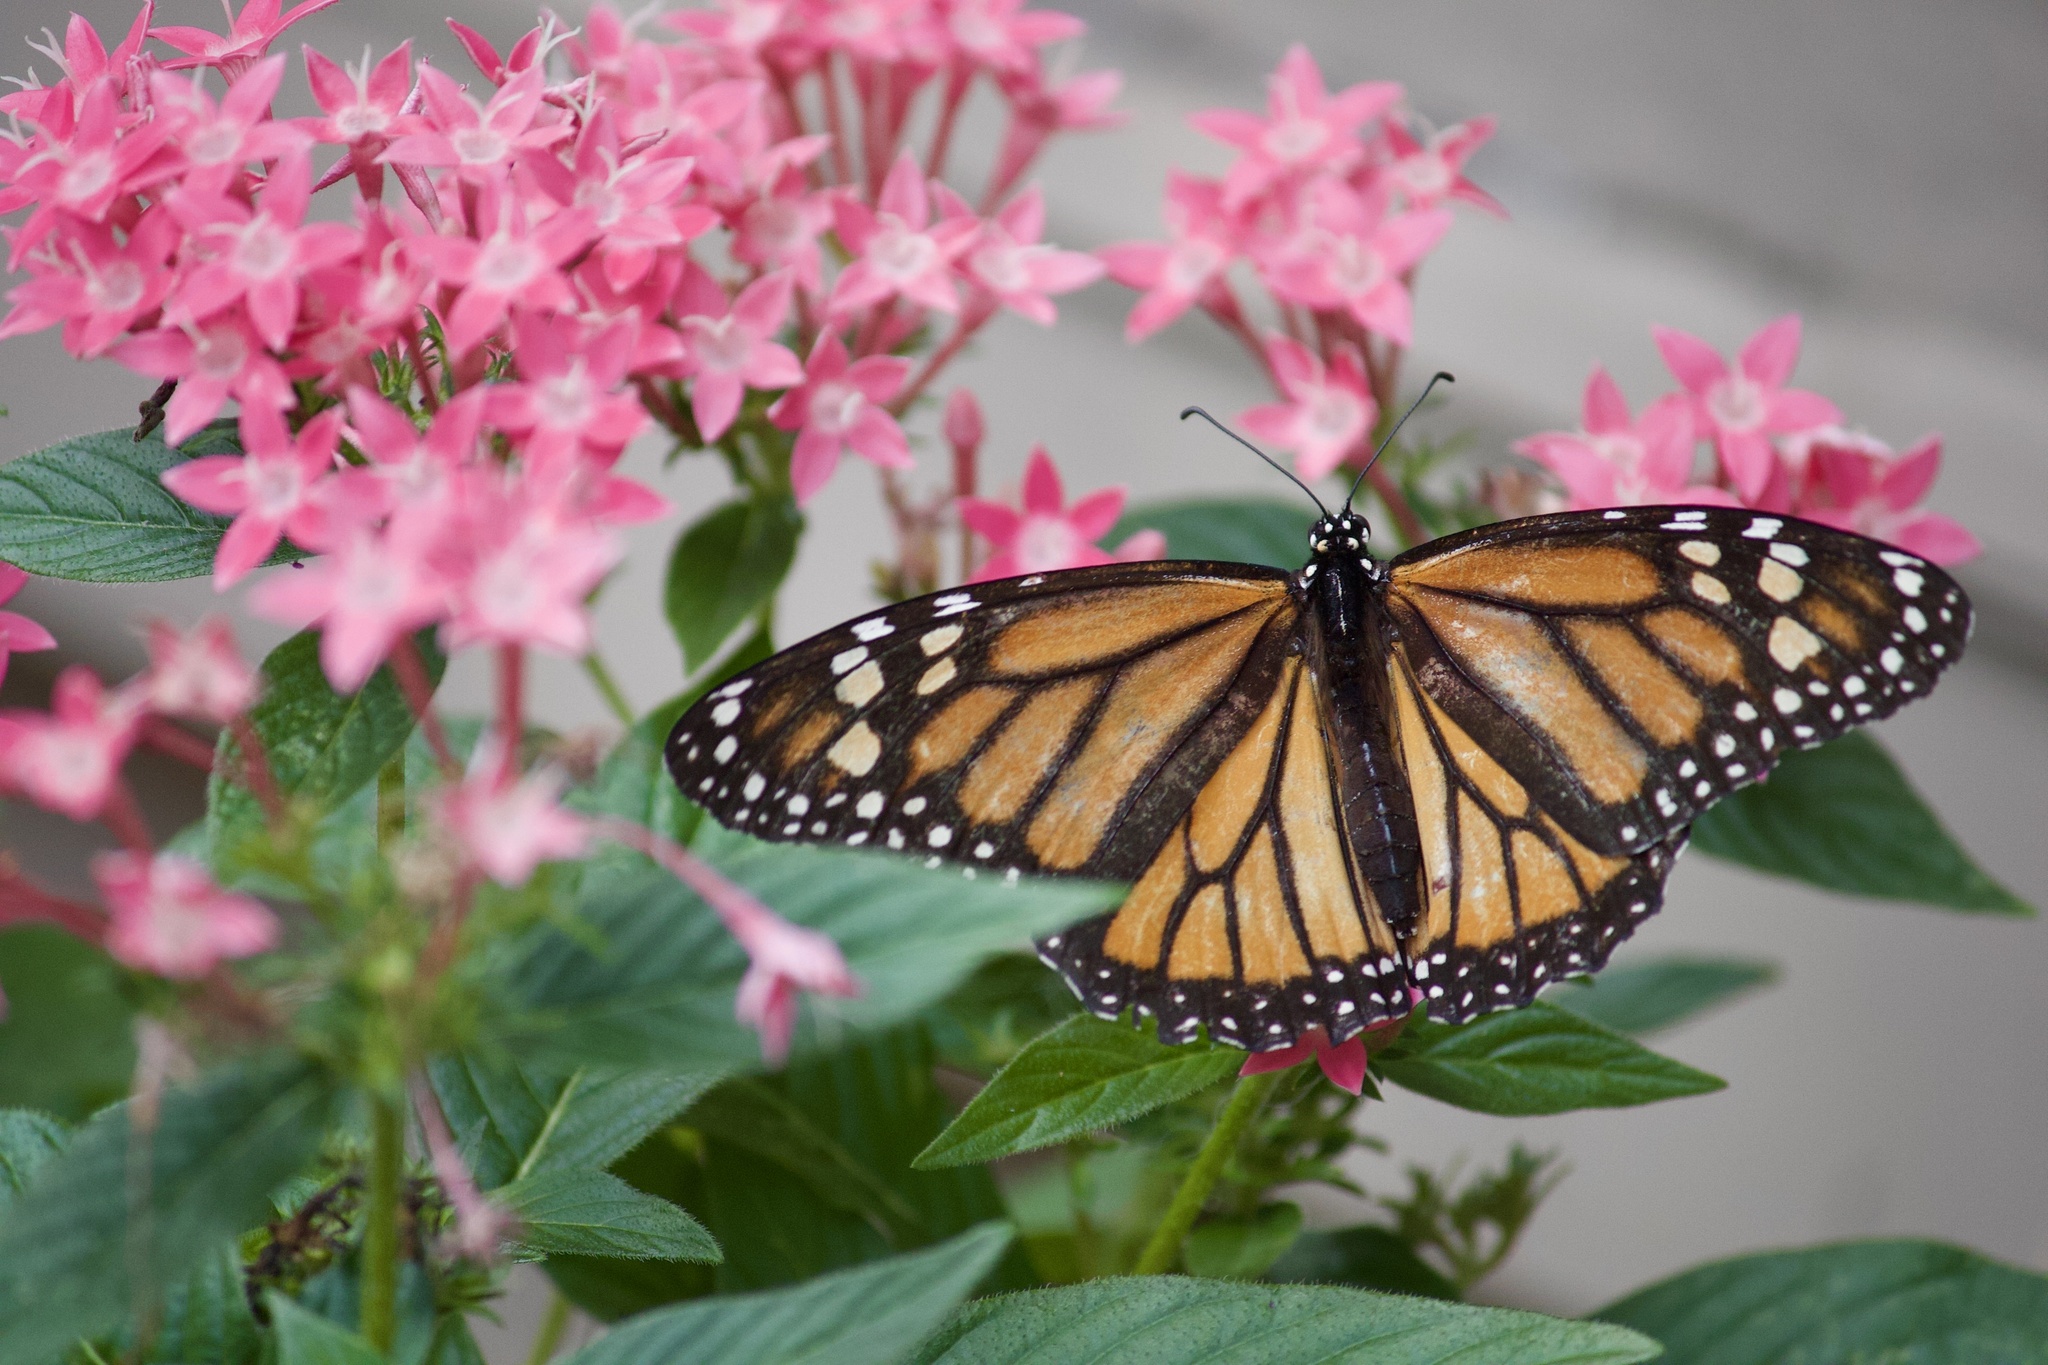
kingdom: Animalia
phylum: Arthropoda
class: Insecta
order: Lepidoptera
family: Nymphalidae
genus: Danaus
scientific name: Danaus plexippus
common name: Monarch
